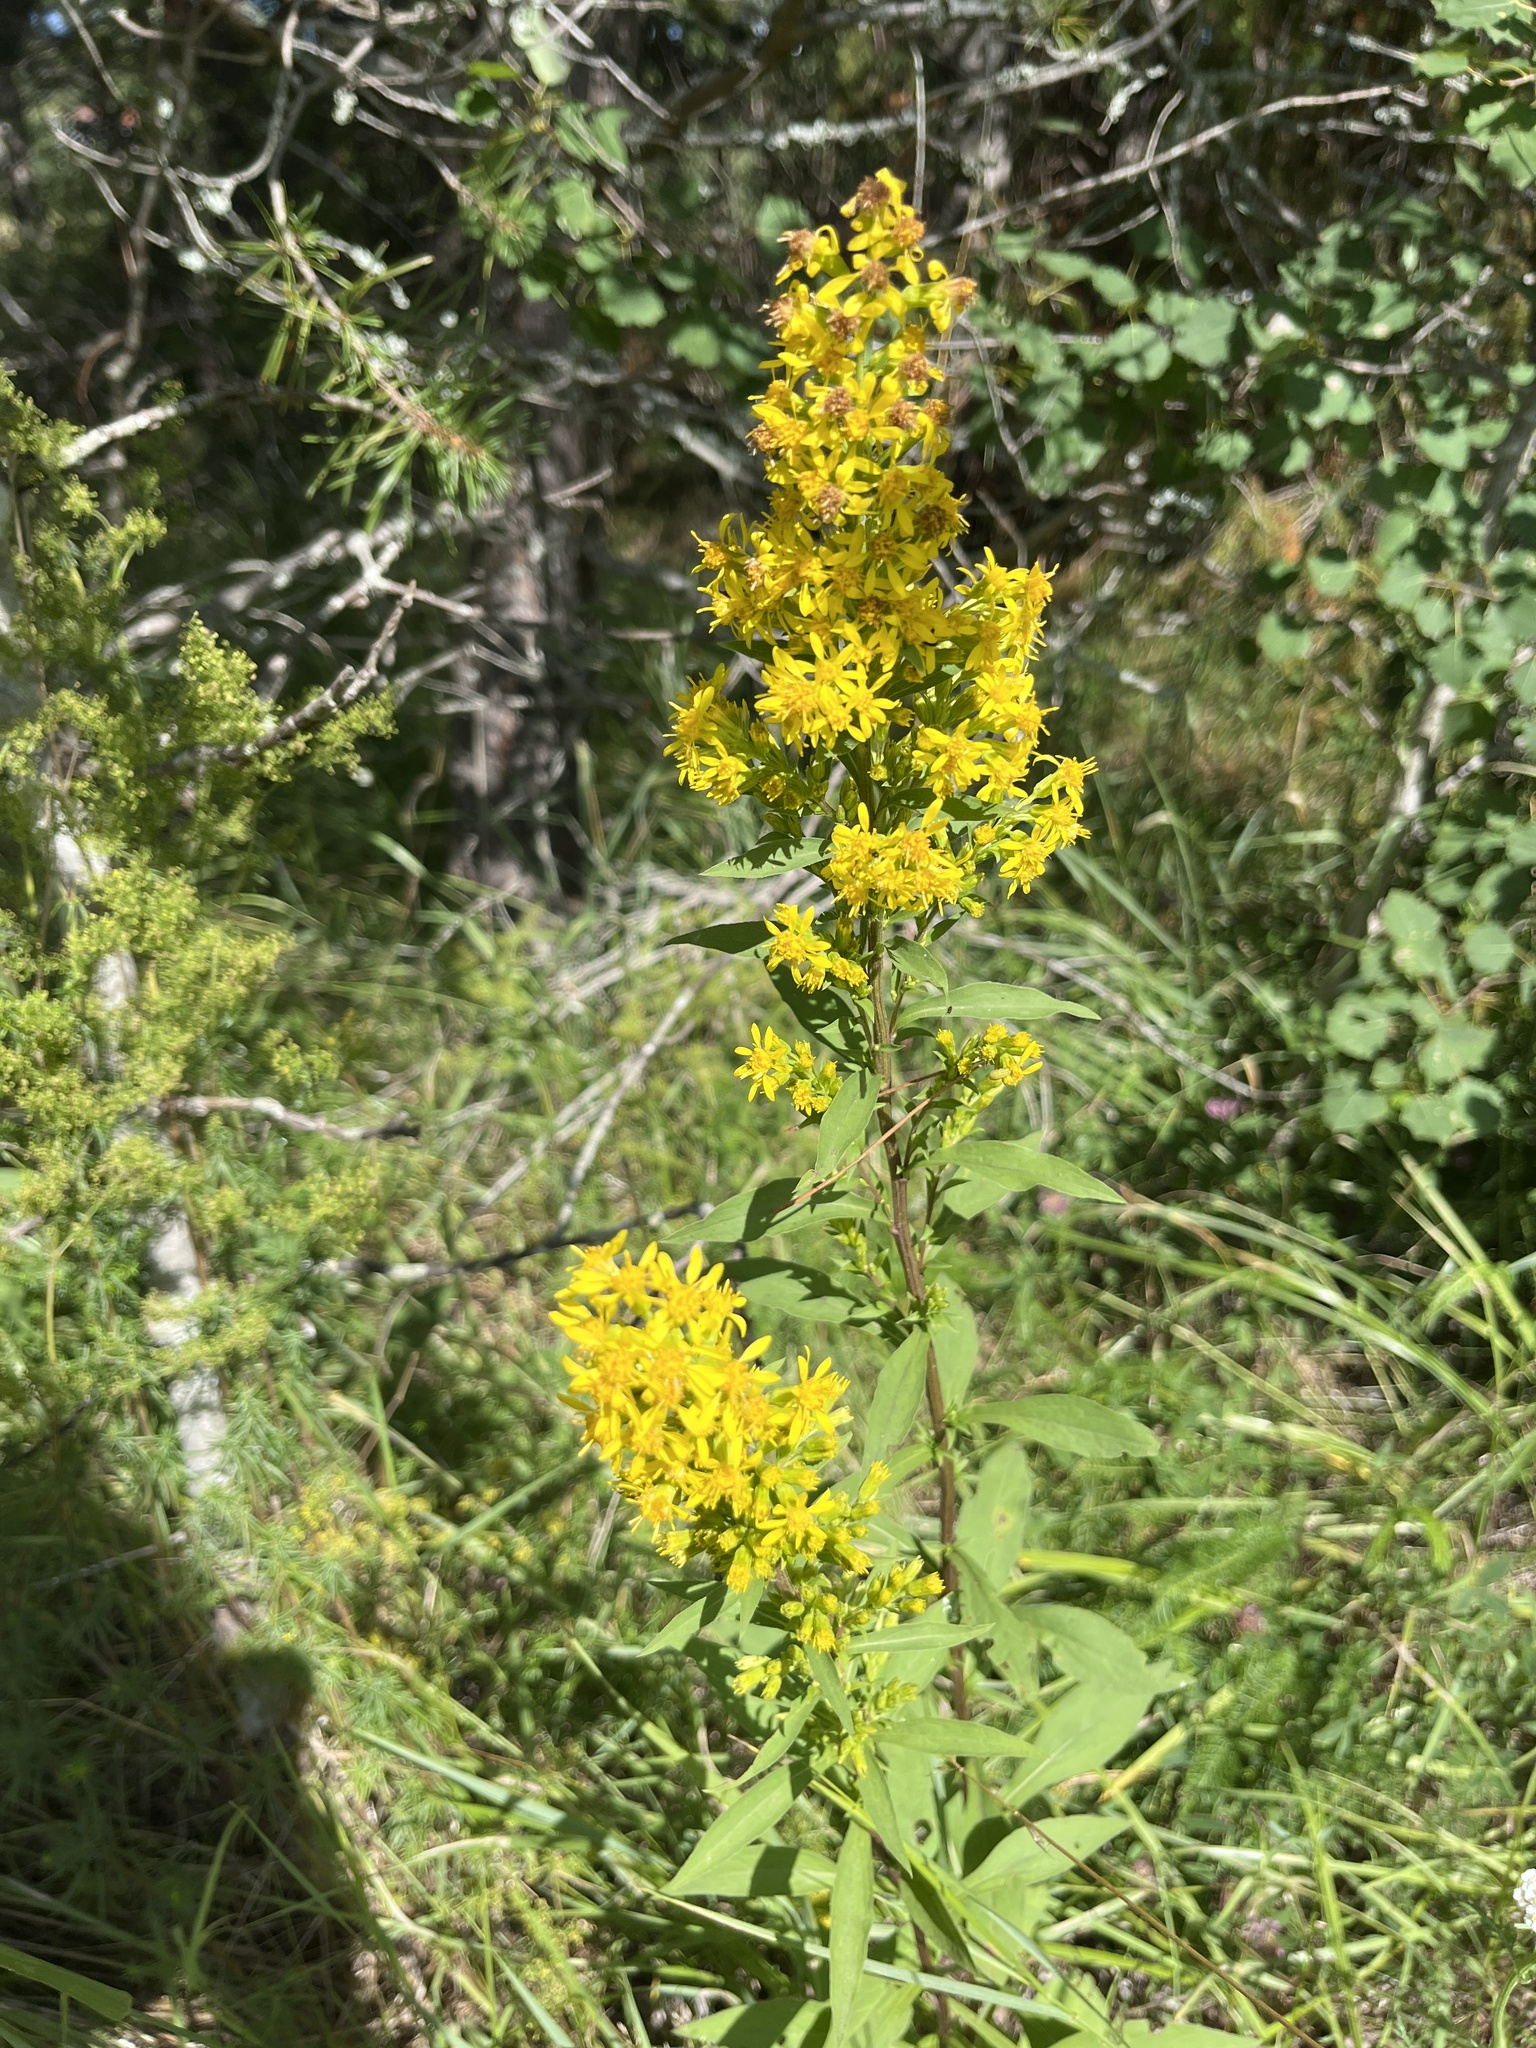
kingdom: Plantae
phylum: Tracheophyta
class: Magnoliopsida
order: Asterales
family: Asteraceae
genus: Solidago
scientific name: Solidago virgaurea
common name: Goldenrod
